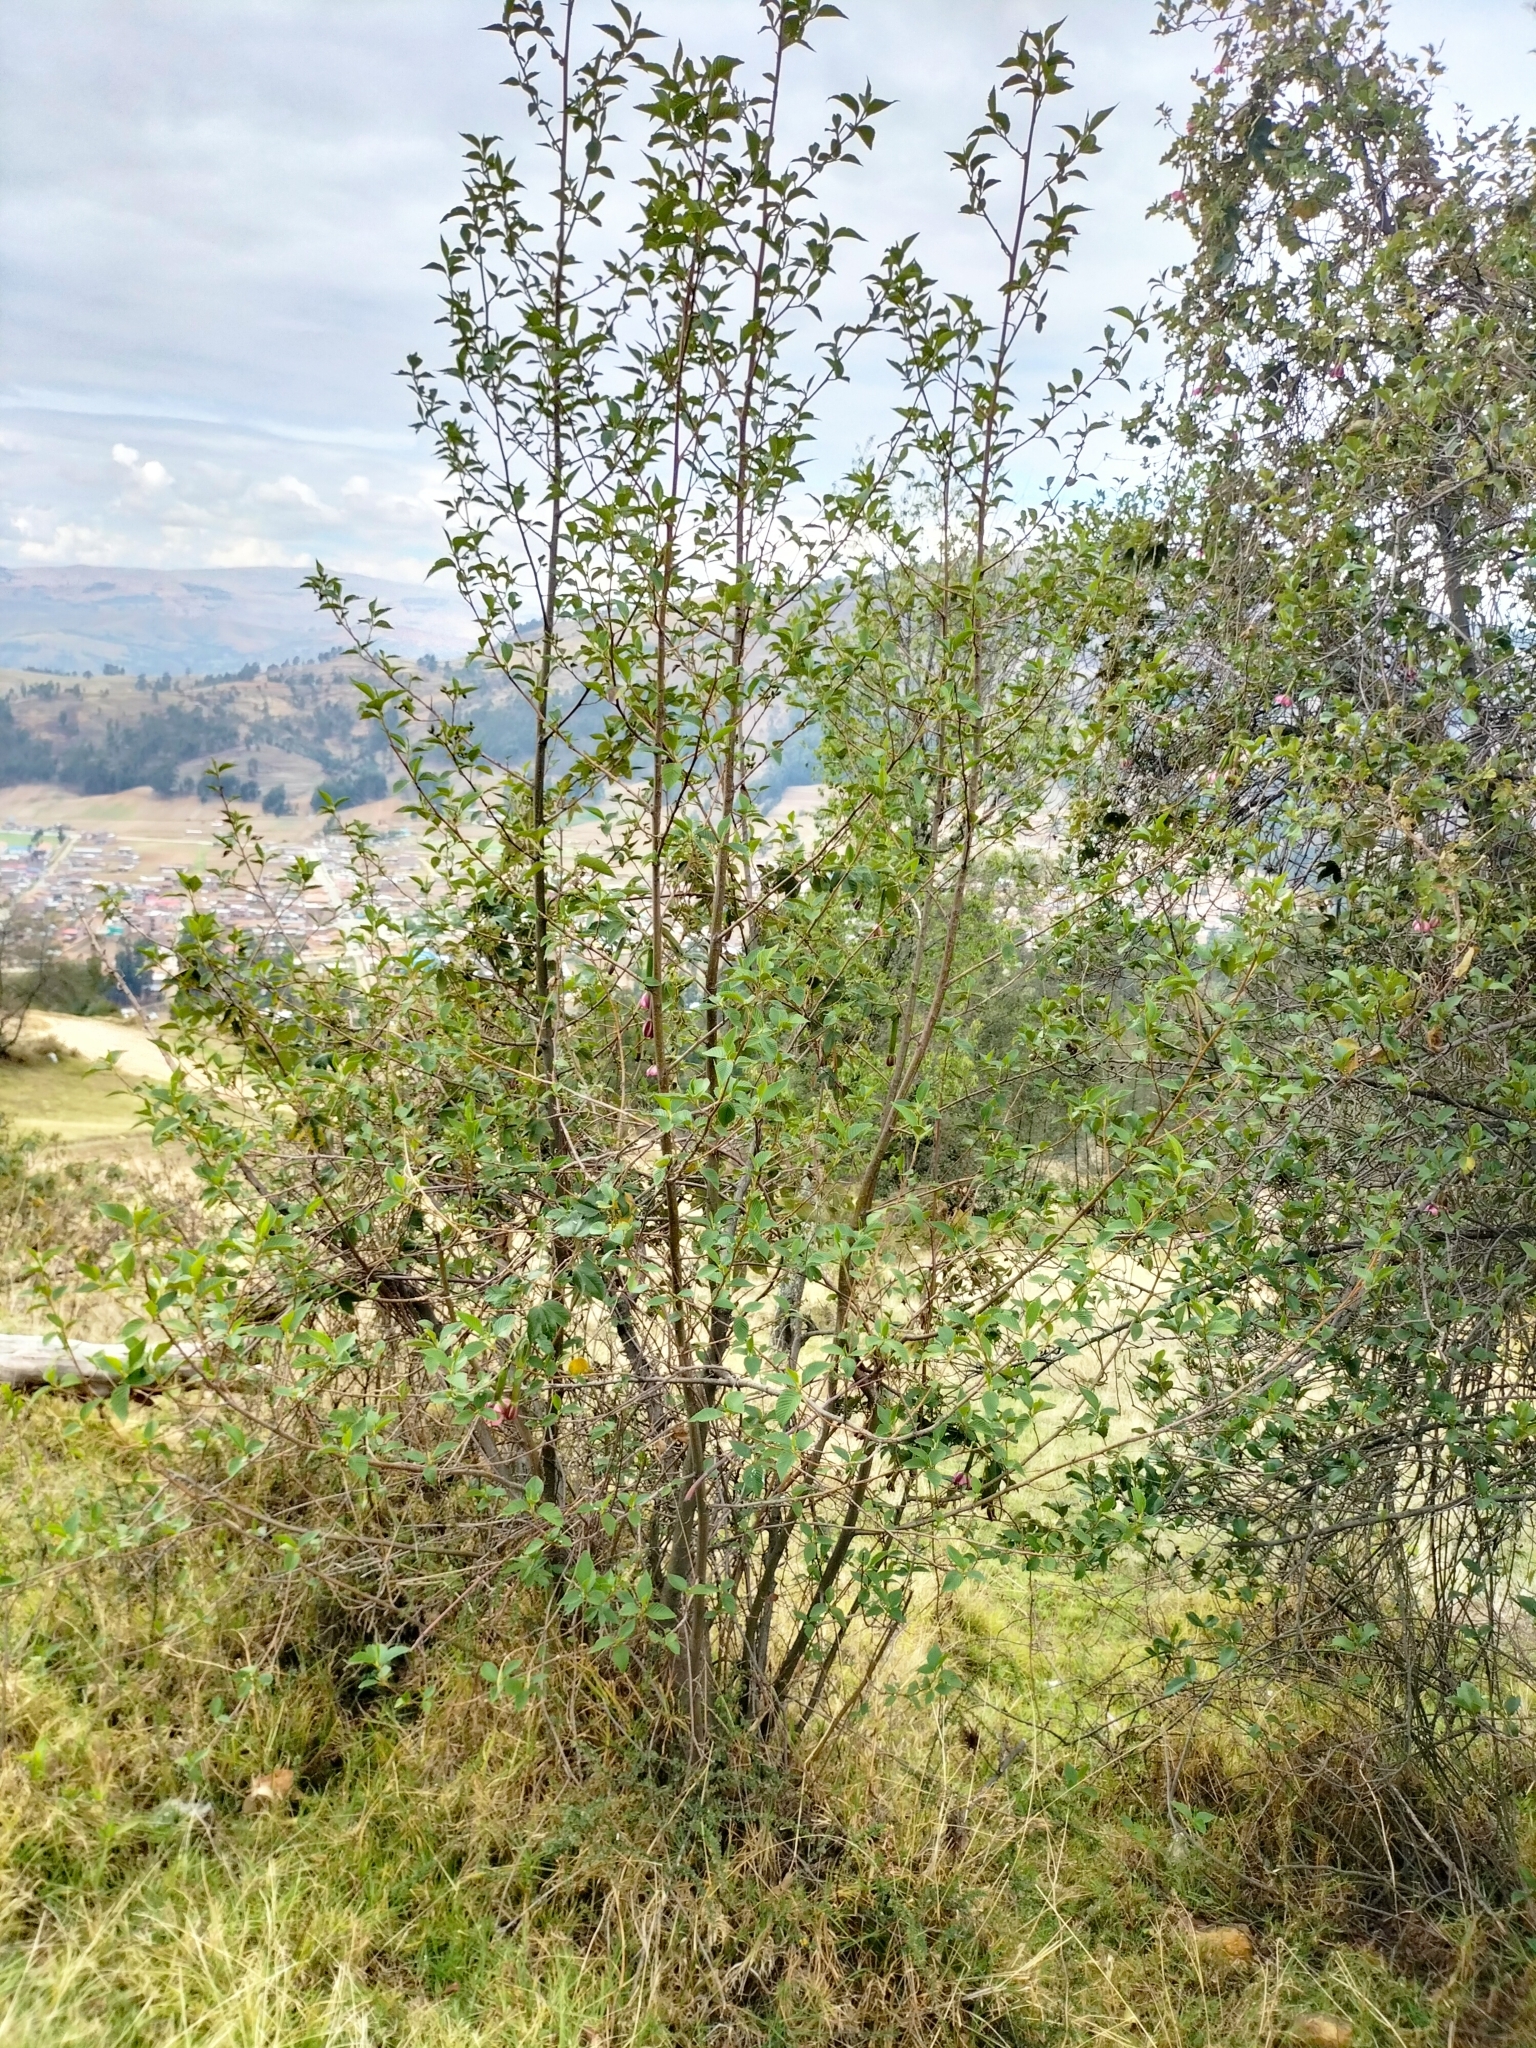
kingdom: Plantae
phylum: Tracheophyta
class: Magnoliopsida
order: Fagales
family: Betulaceae
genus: Alnus
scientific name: Alnus acuminata
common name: Alder
